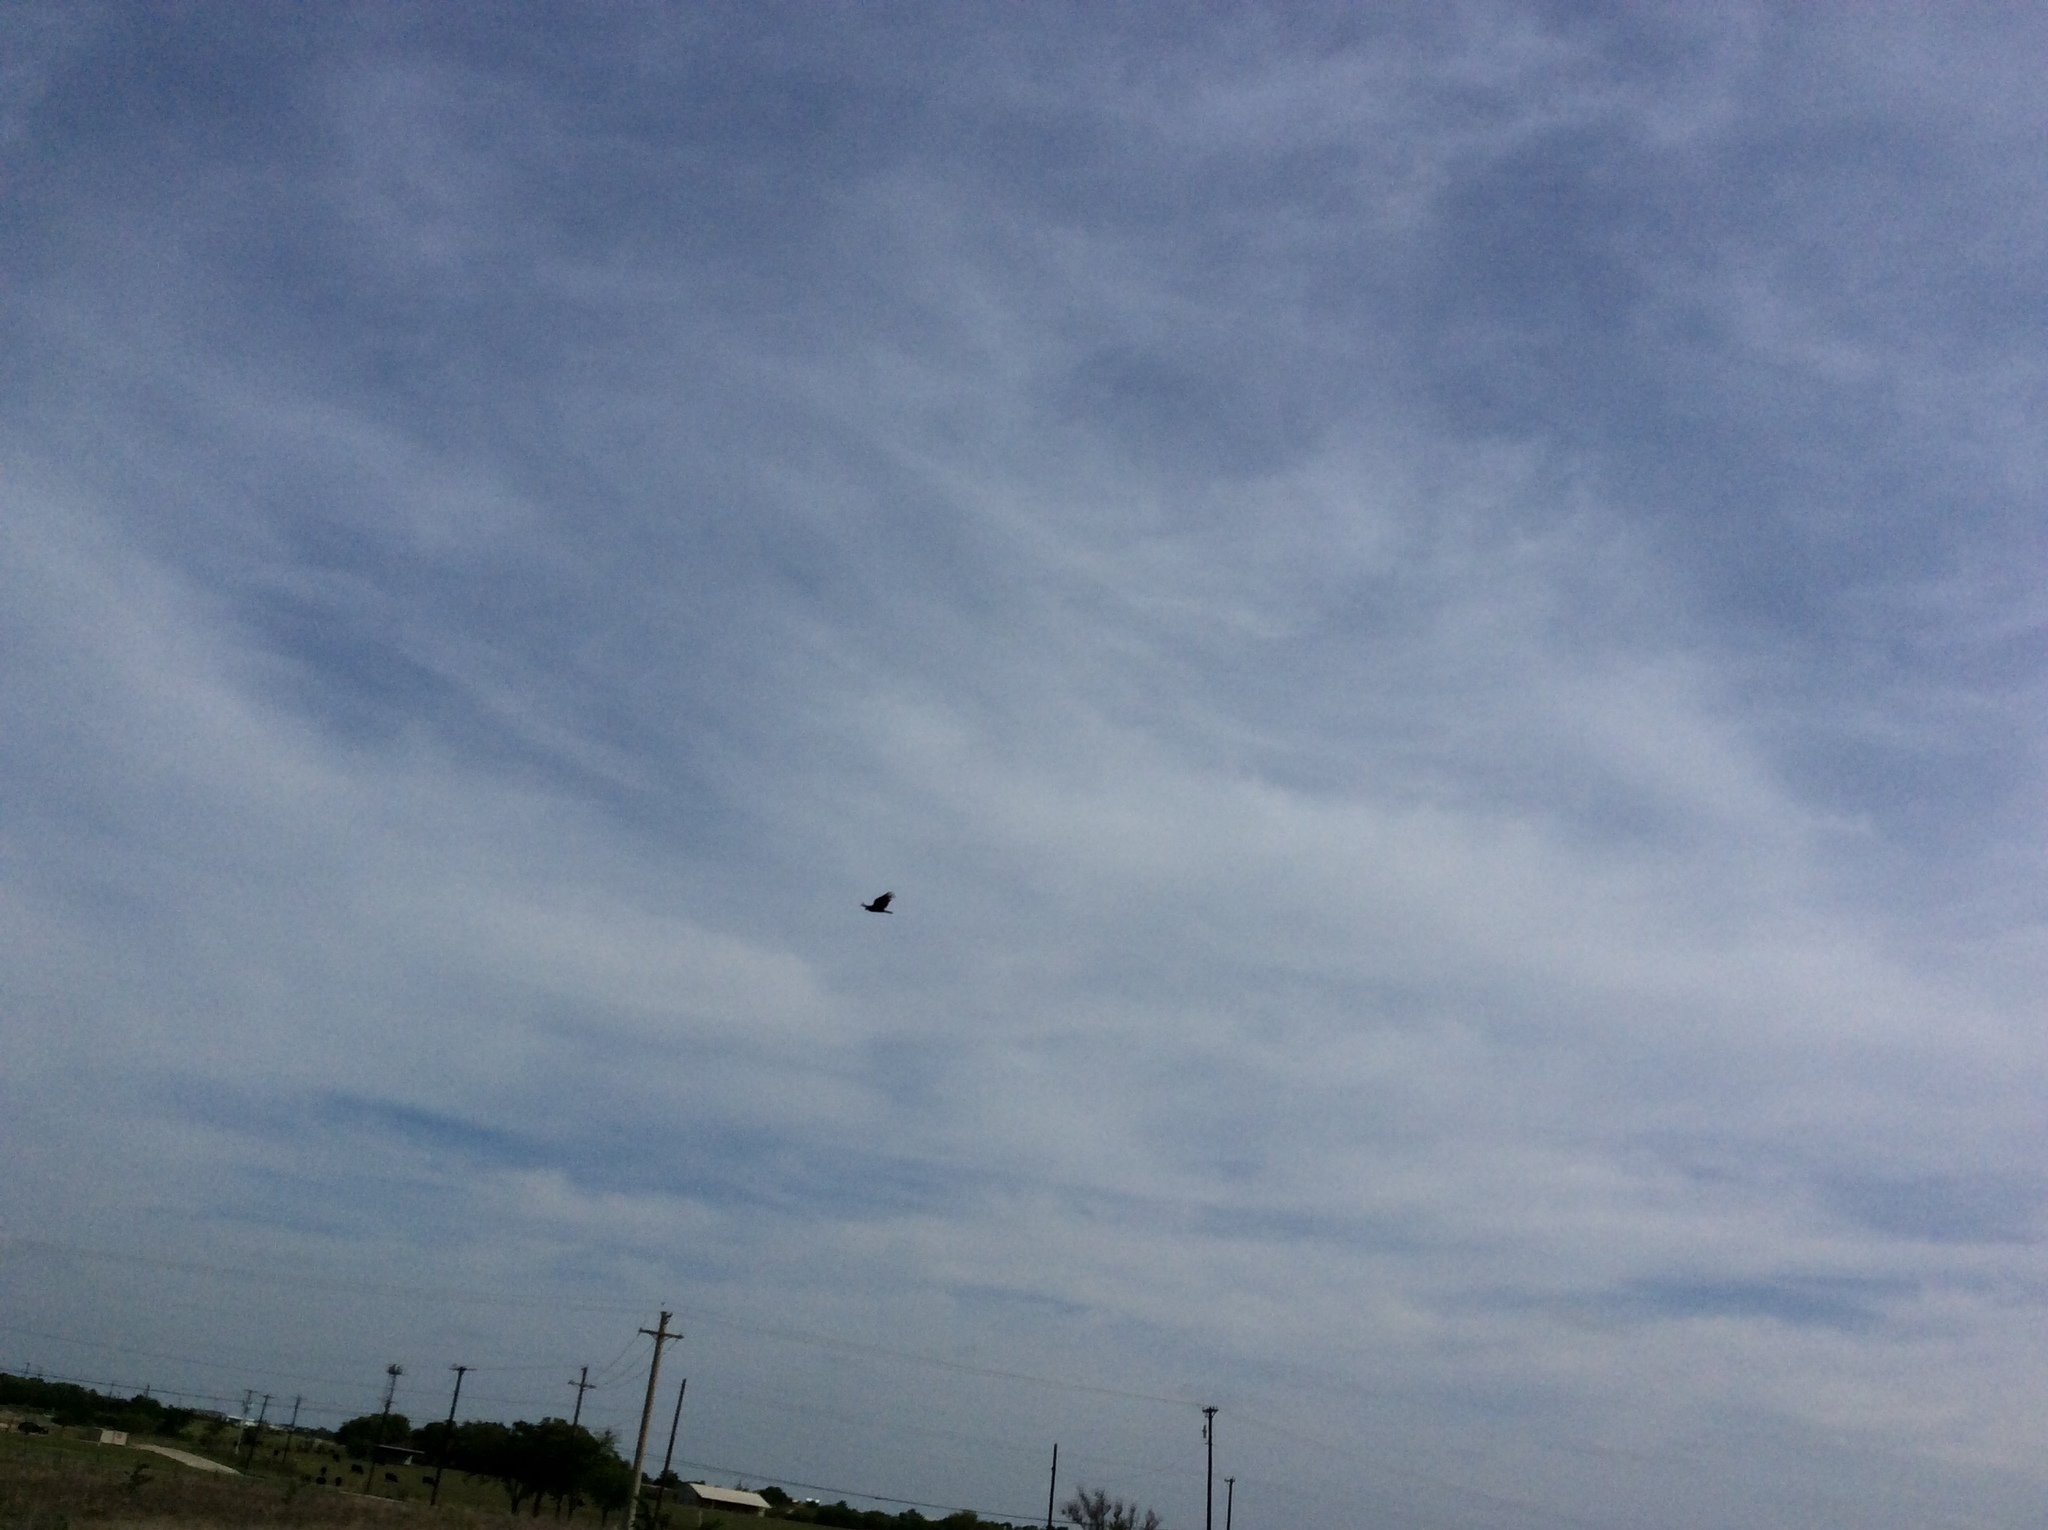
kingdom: Animalia
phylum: Chordata
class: Aves
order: Accipitriformes
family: Cathartidae
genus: Cathartes
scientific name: Cathartes aura
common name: Turkey vulture
